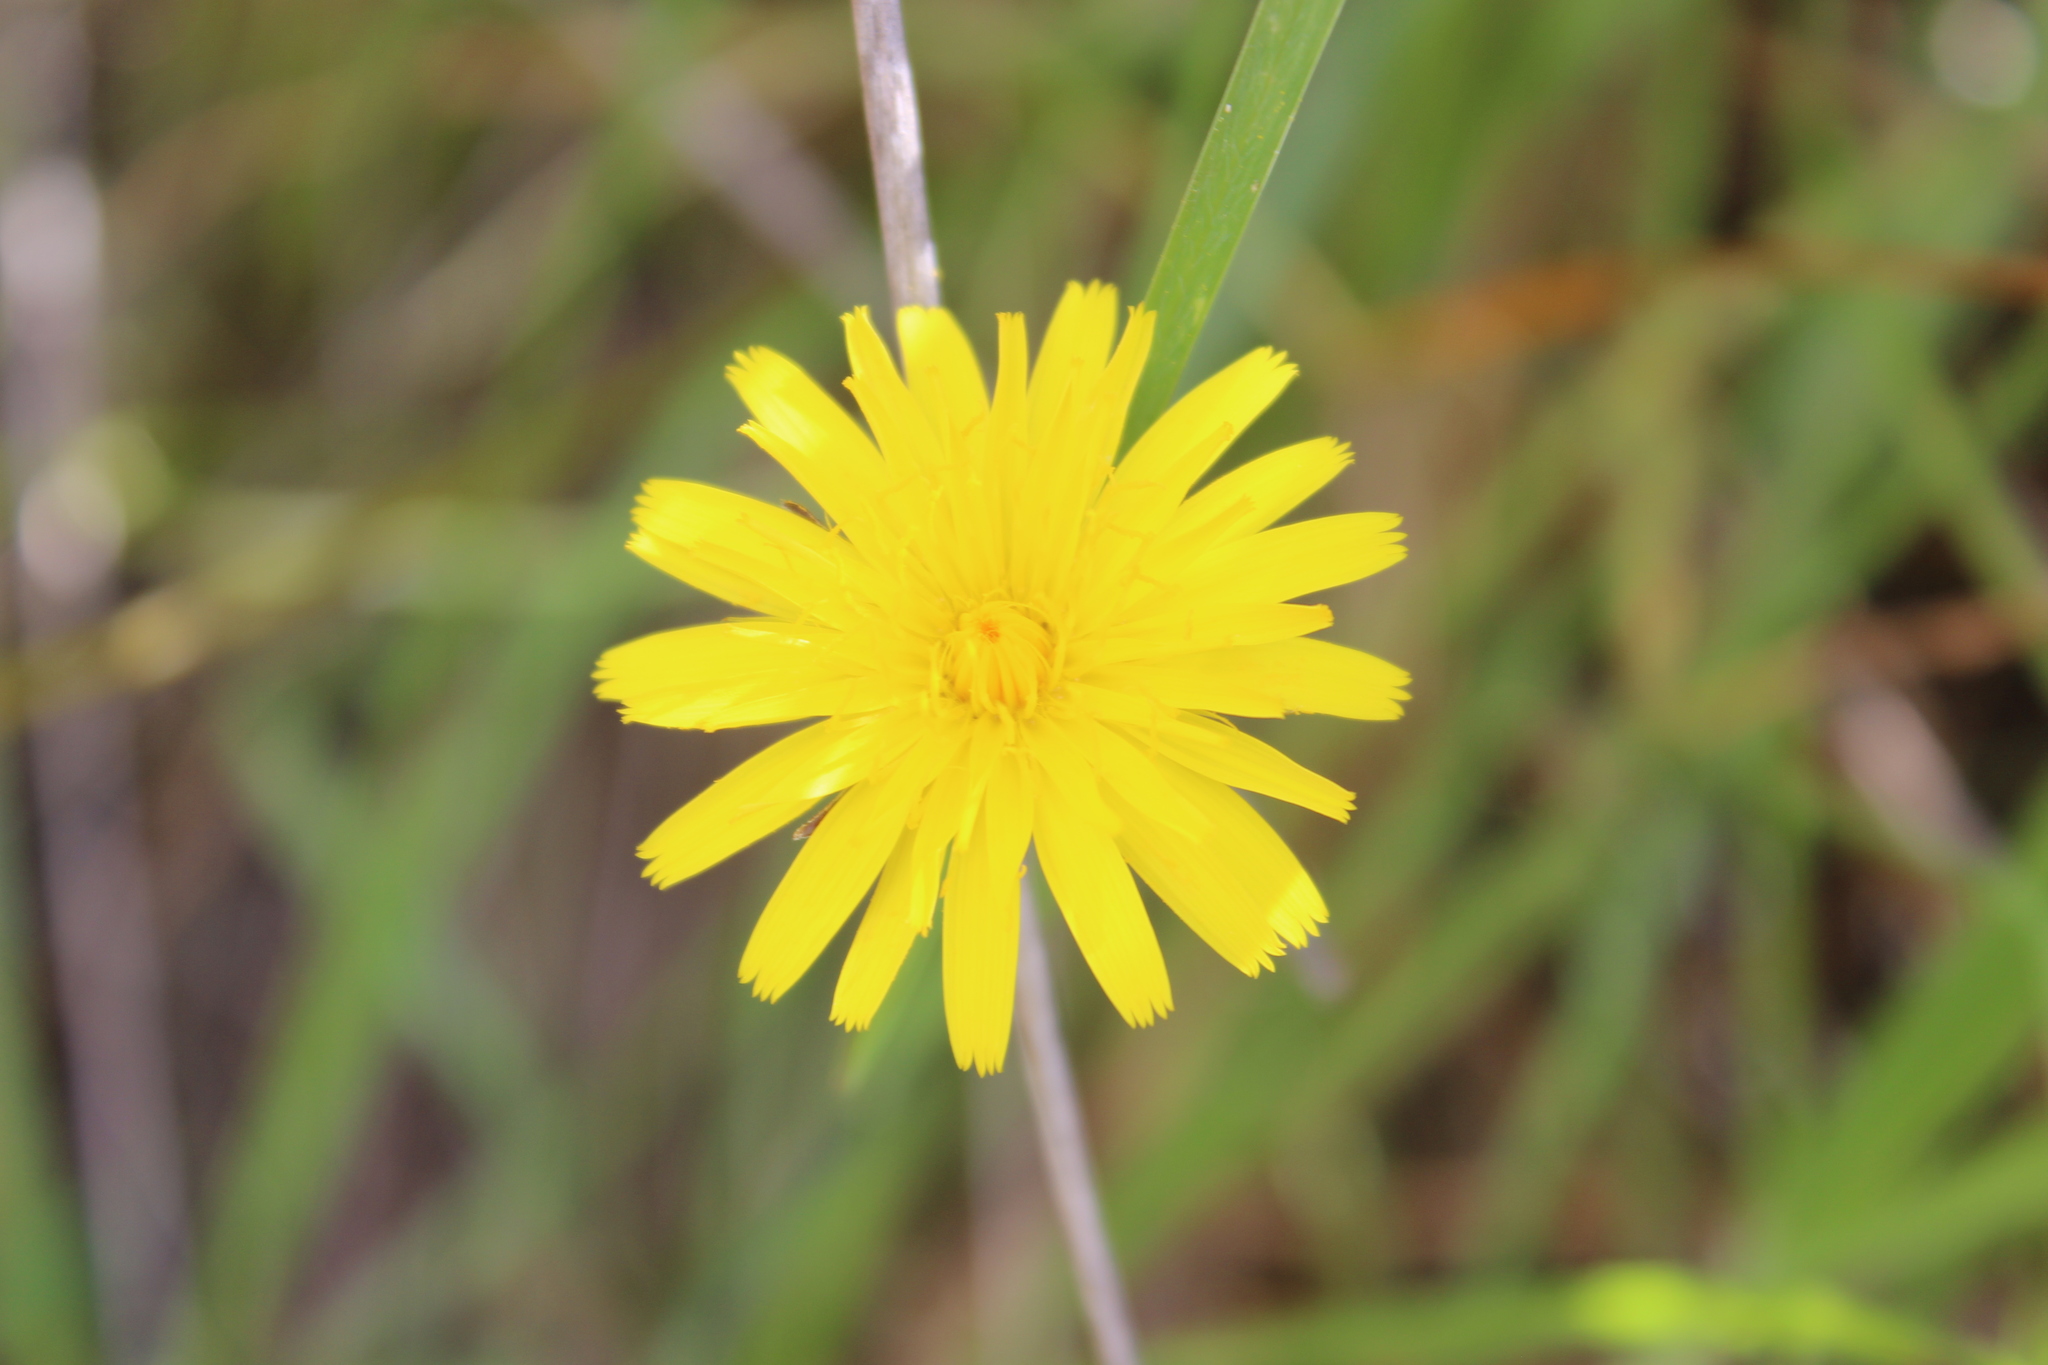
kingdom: Plantae
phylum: Tracheophyta
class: Magnoliopsida
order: Asterales
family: Asteraceae
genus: Hypochaeris
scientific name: Hypochaeris radicata
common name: Flatweed
